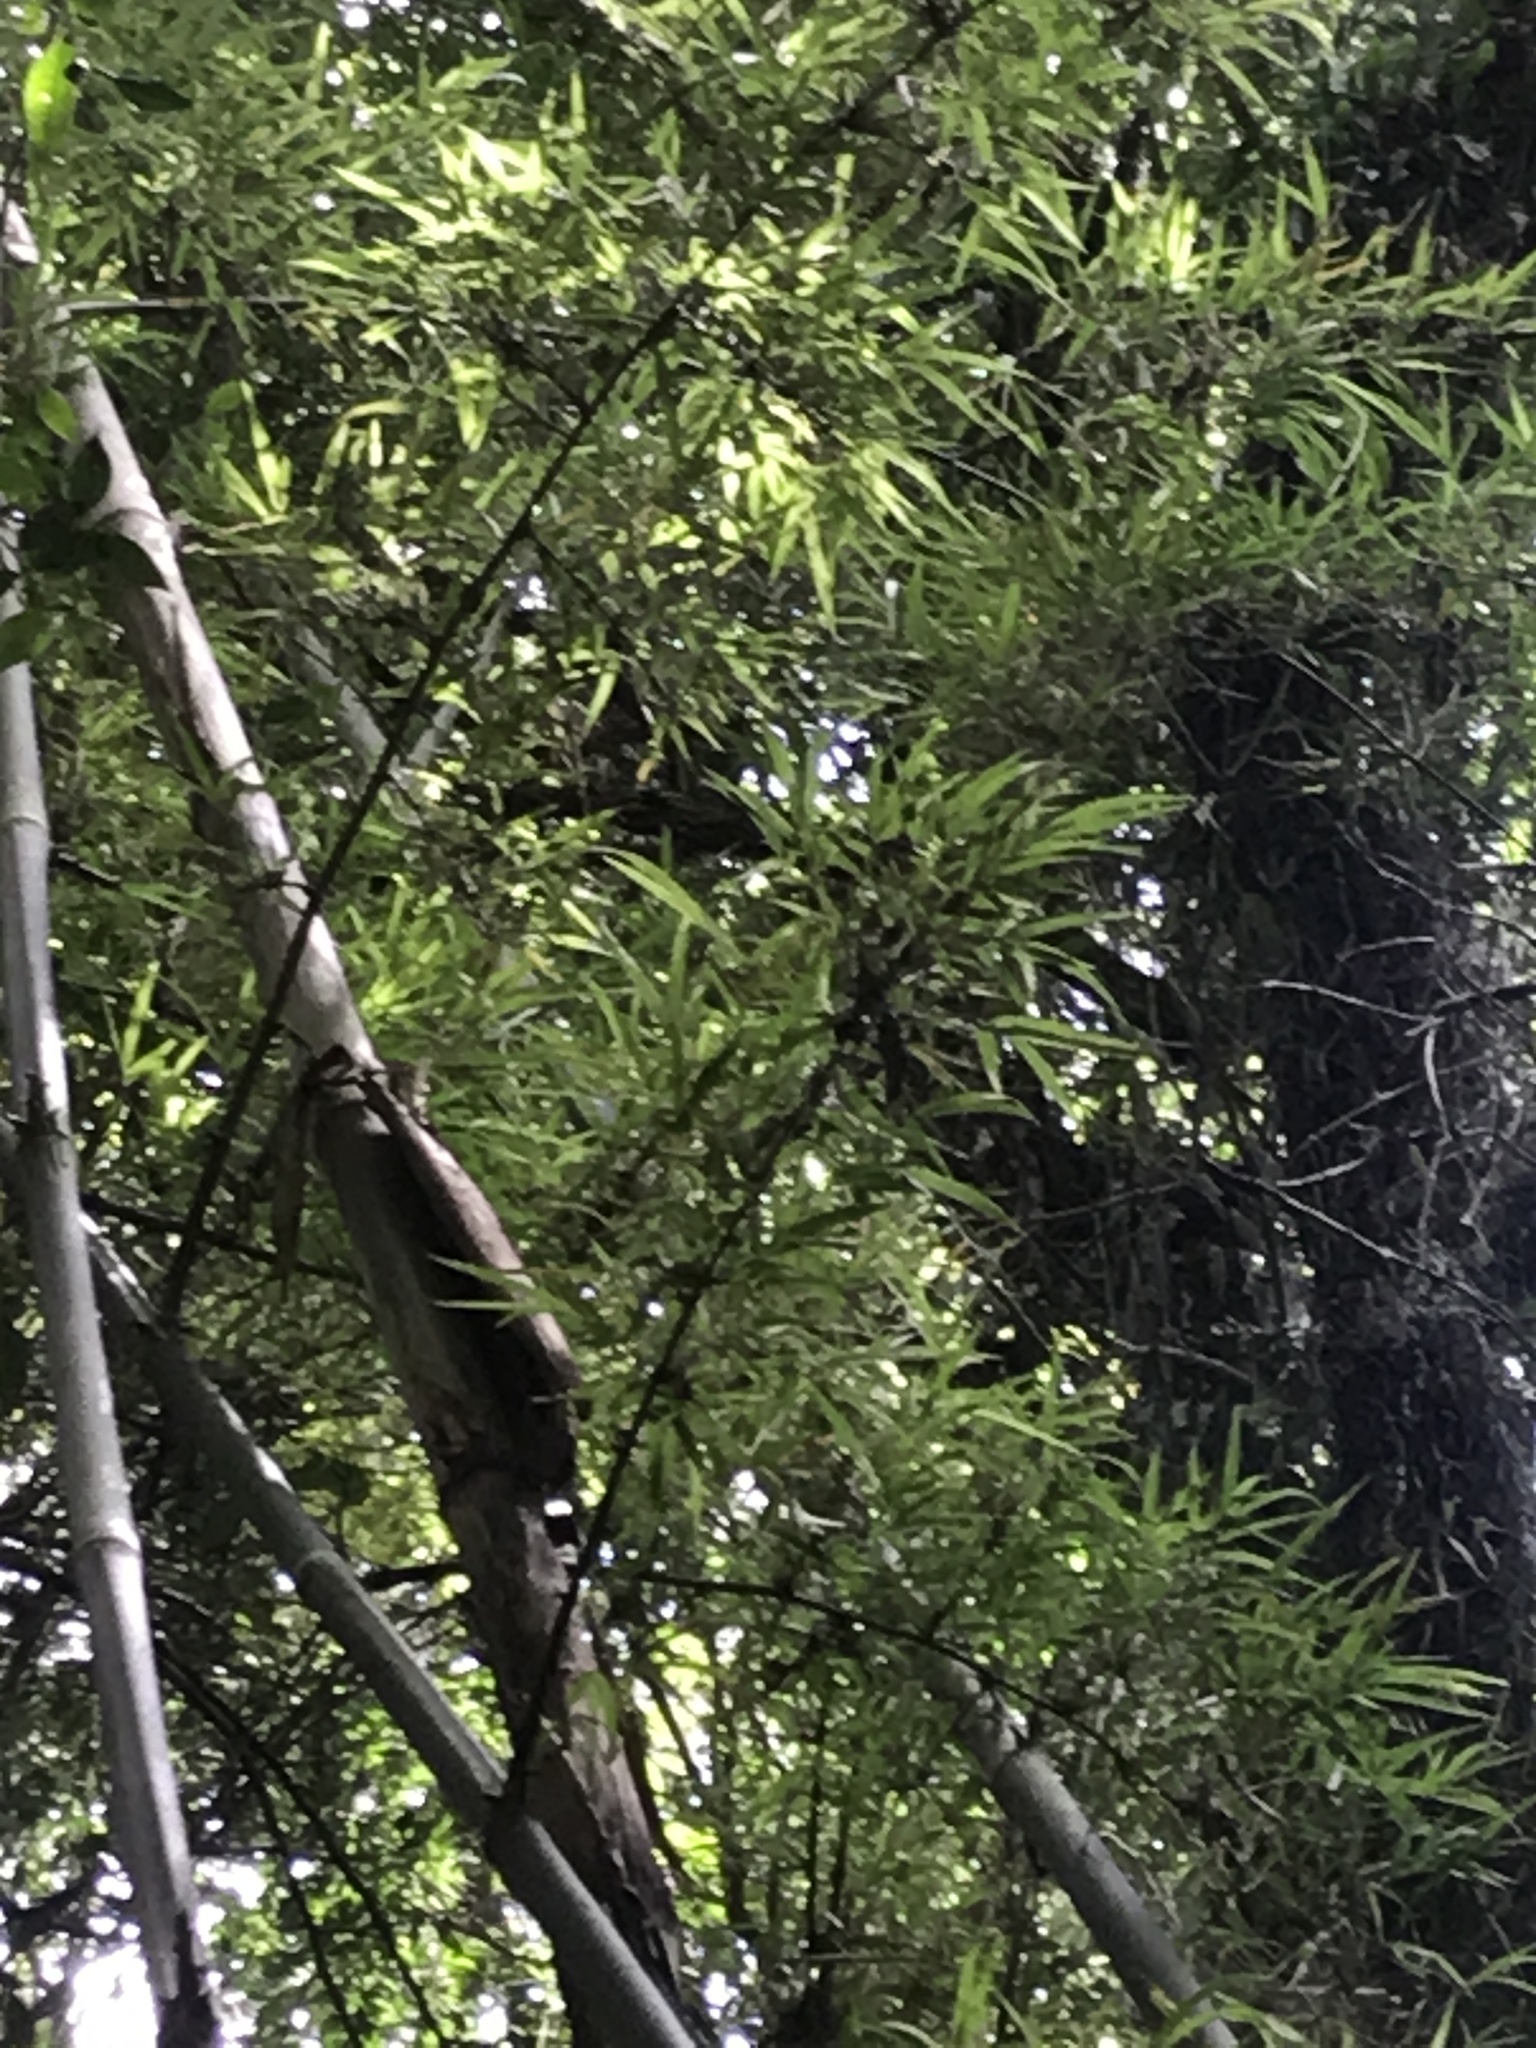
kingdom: Plantae
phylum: Tracheophyta
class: Liliopsida
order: Poales
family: Poaceae
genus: Guadua
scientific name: Guadua trinii
